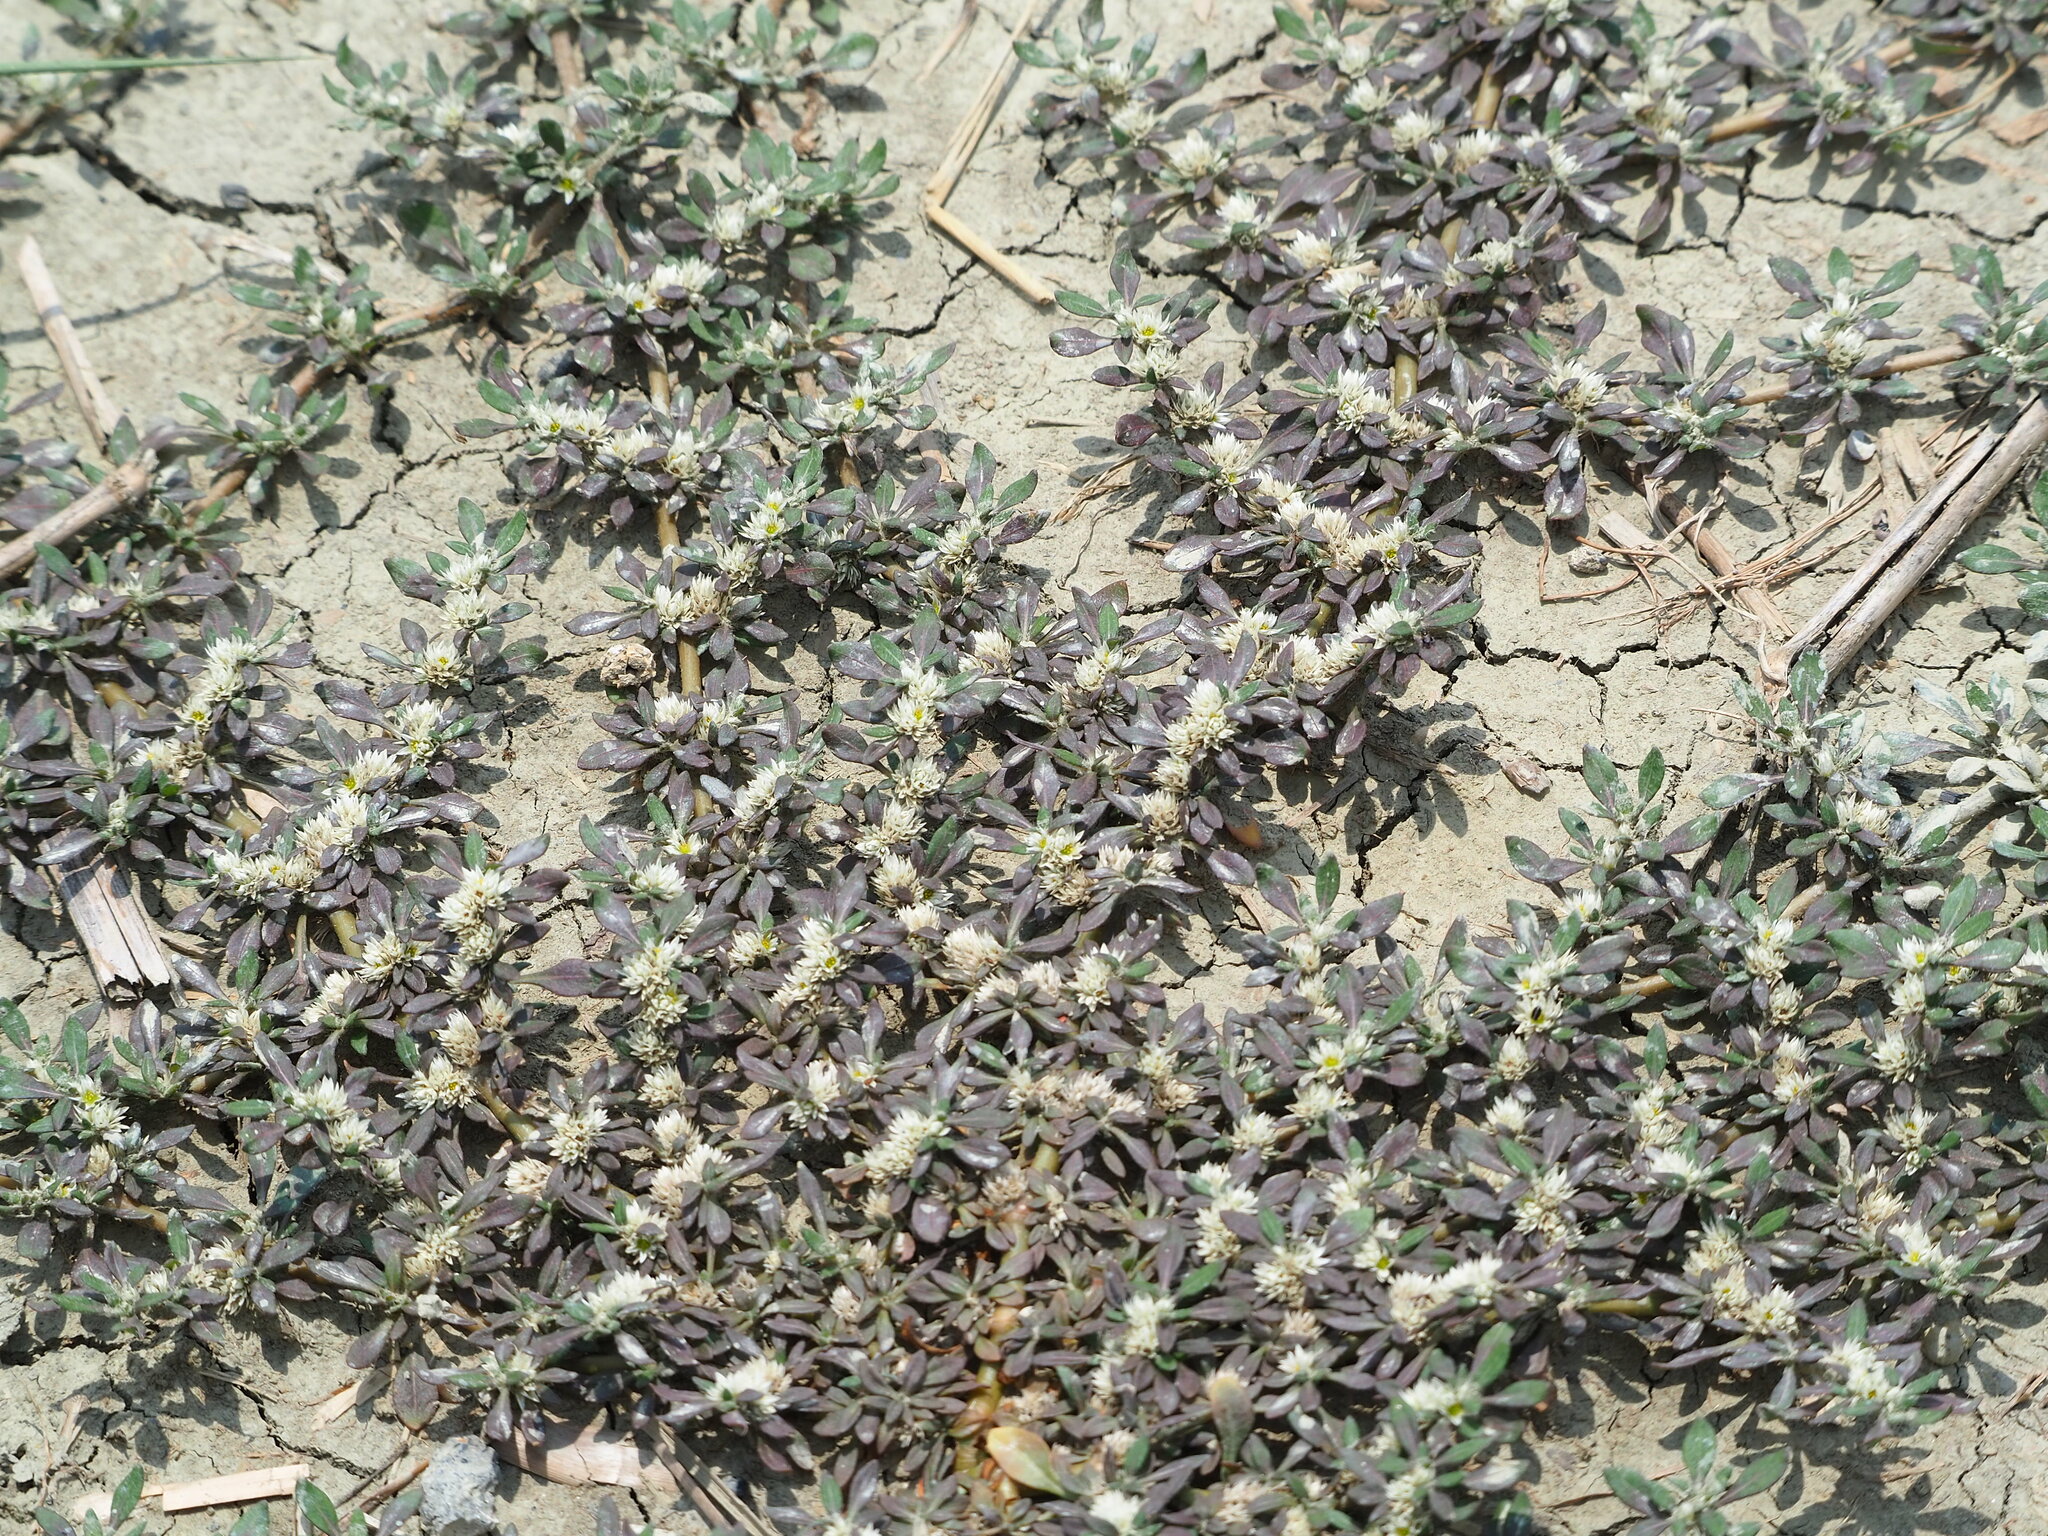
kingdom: Plantae
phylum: Tracheophyta
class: Magnoliopsida
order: Caryophyllales
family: Amaranthaceae
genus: Alternanthera
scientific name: Alternanthera paronychioides
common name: Smooth joyweed
